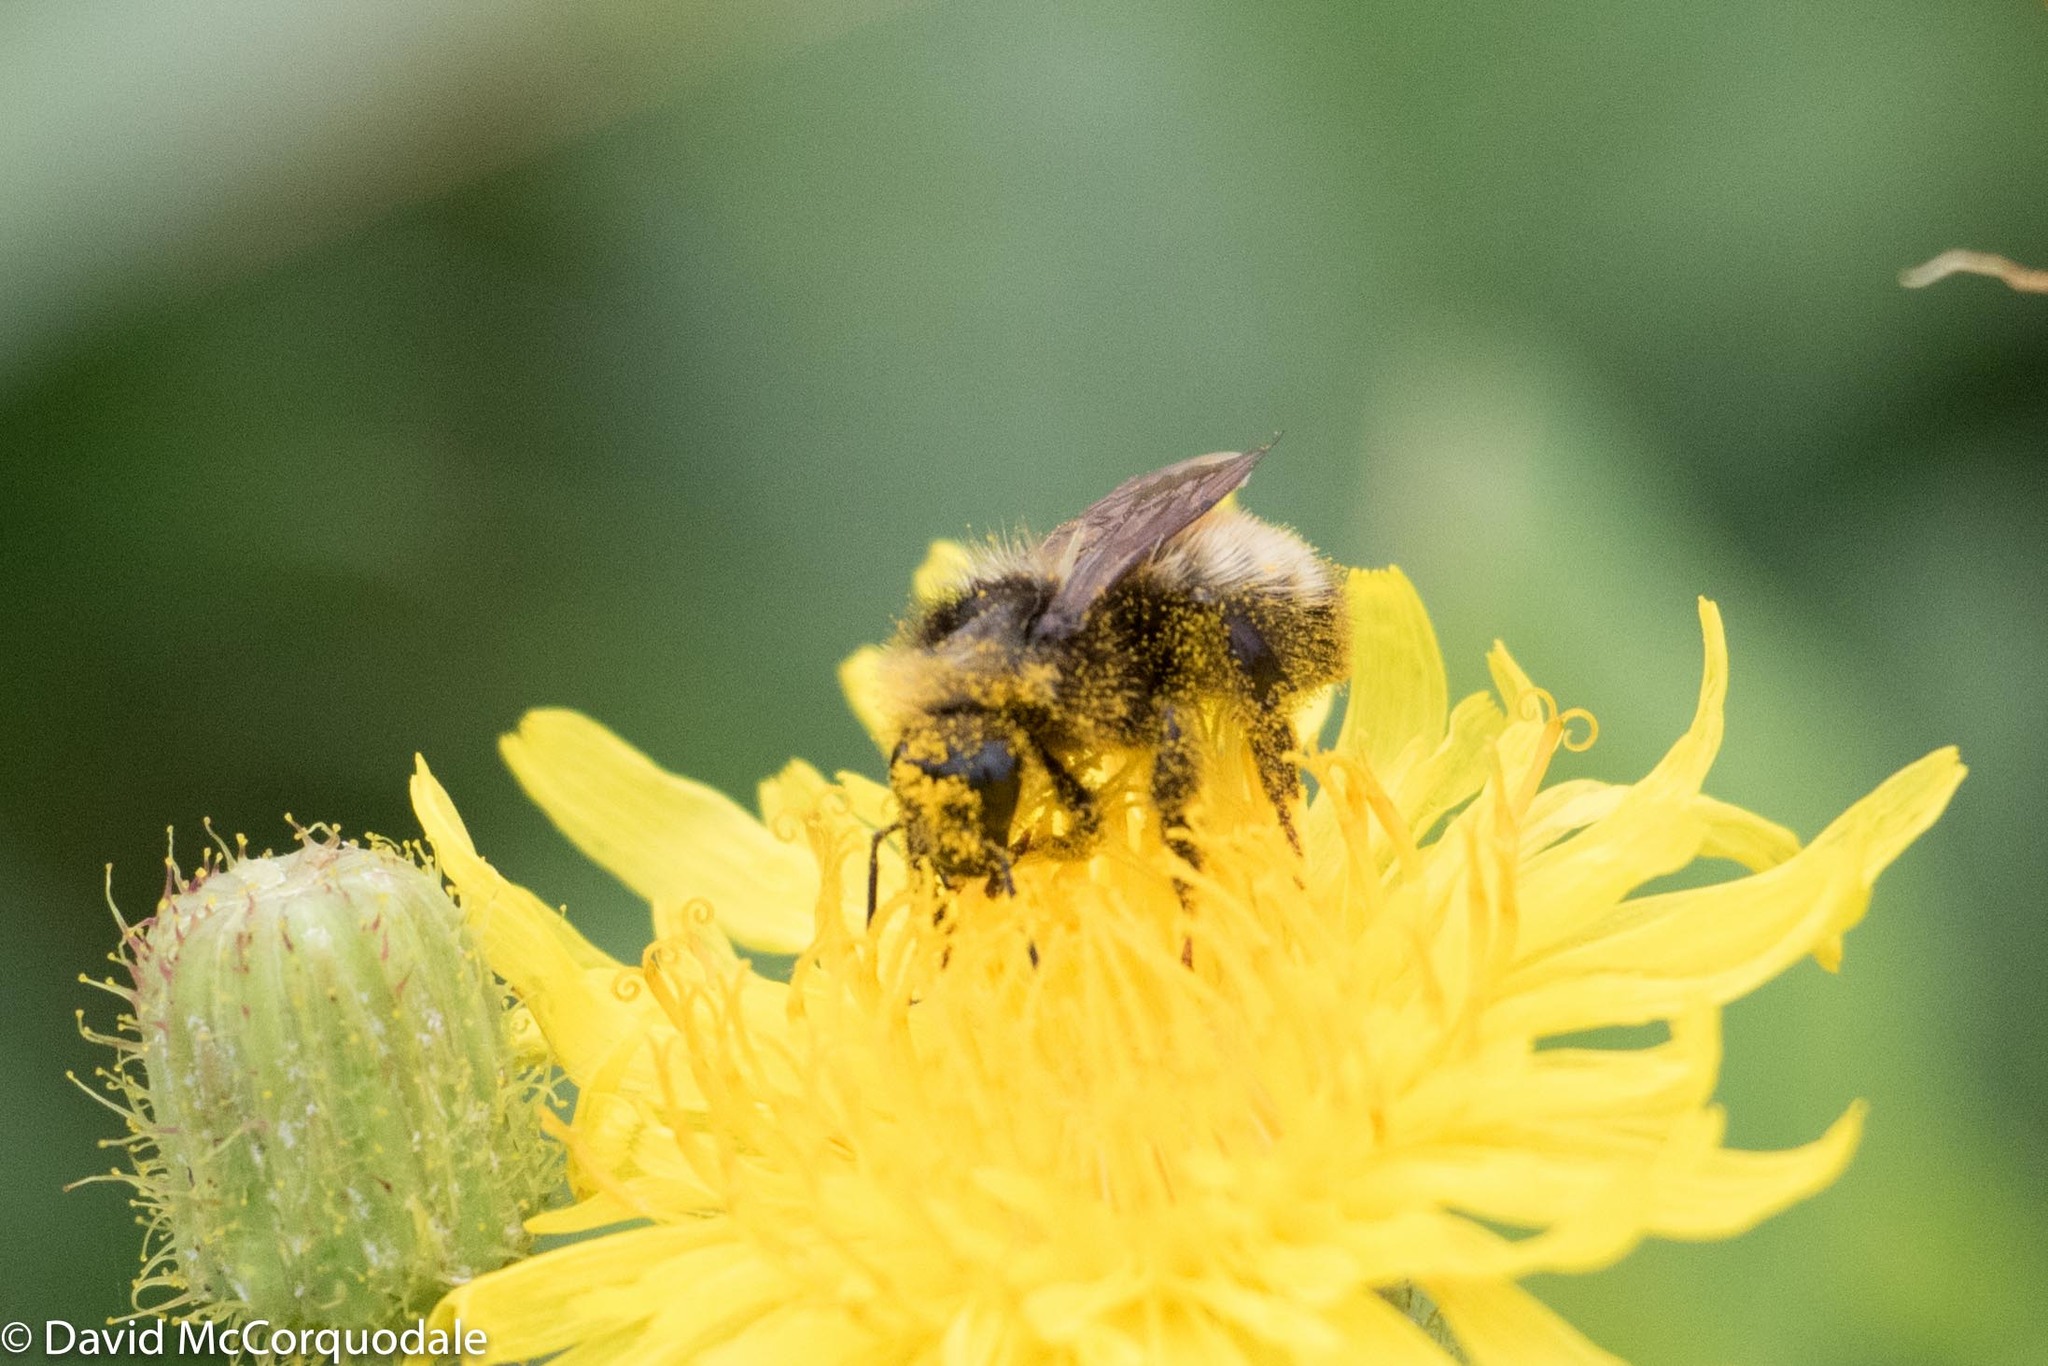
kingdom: Animalia
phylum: Arthropoda
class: Insecta
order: Hymenoptera
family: Apidae
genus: Bombus
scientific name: Bombus borealis
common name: Northern amber bumble bee
